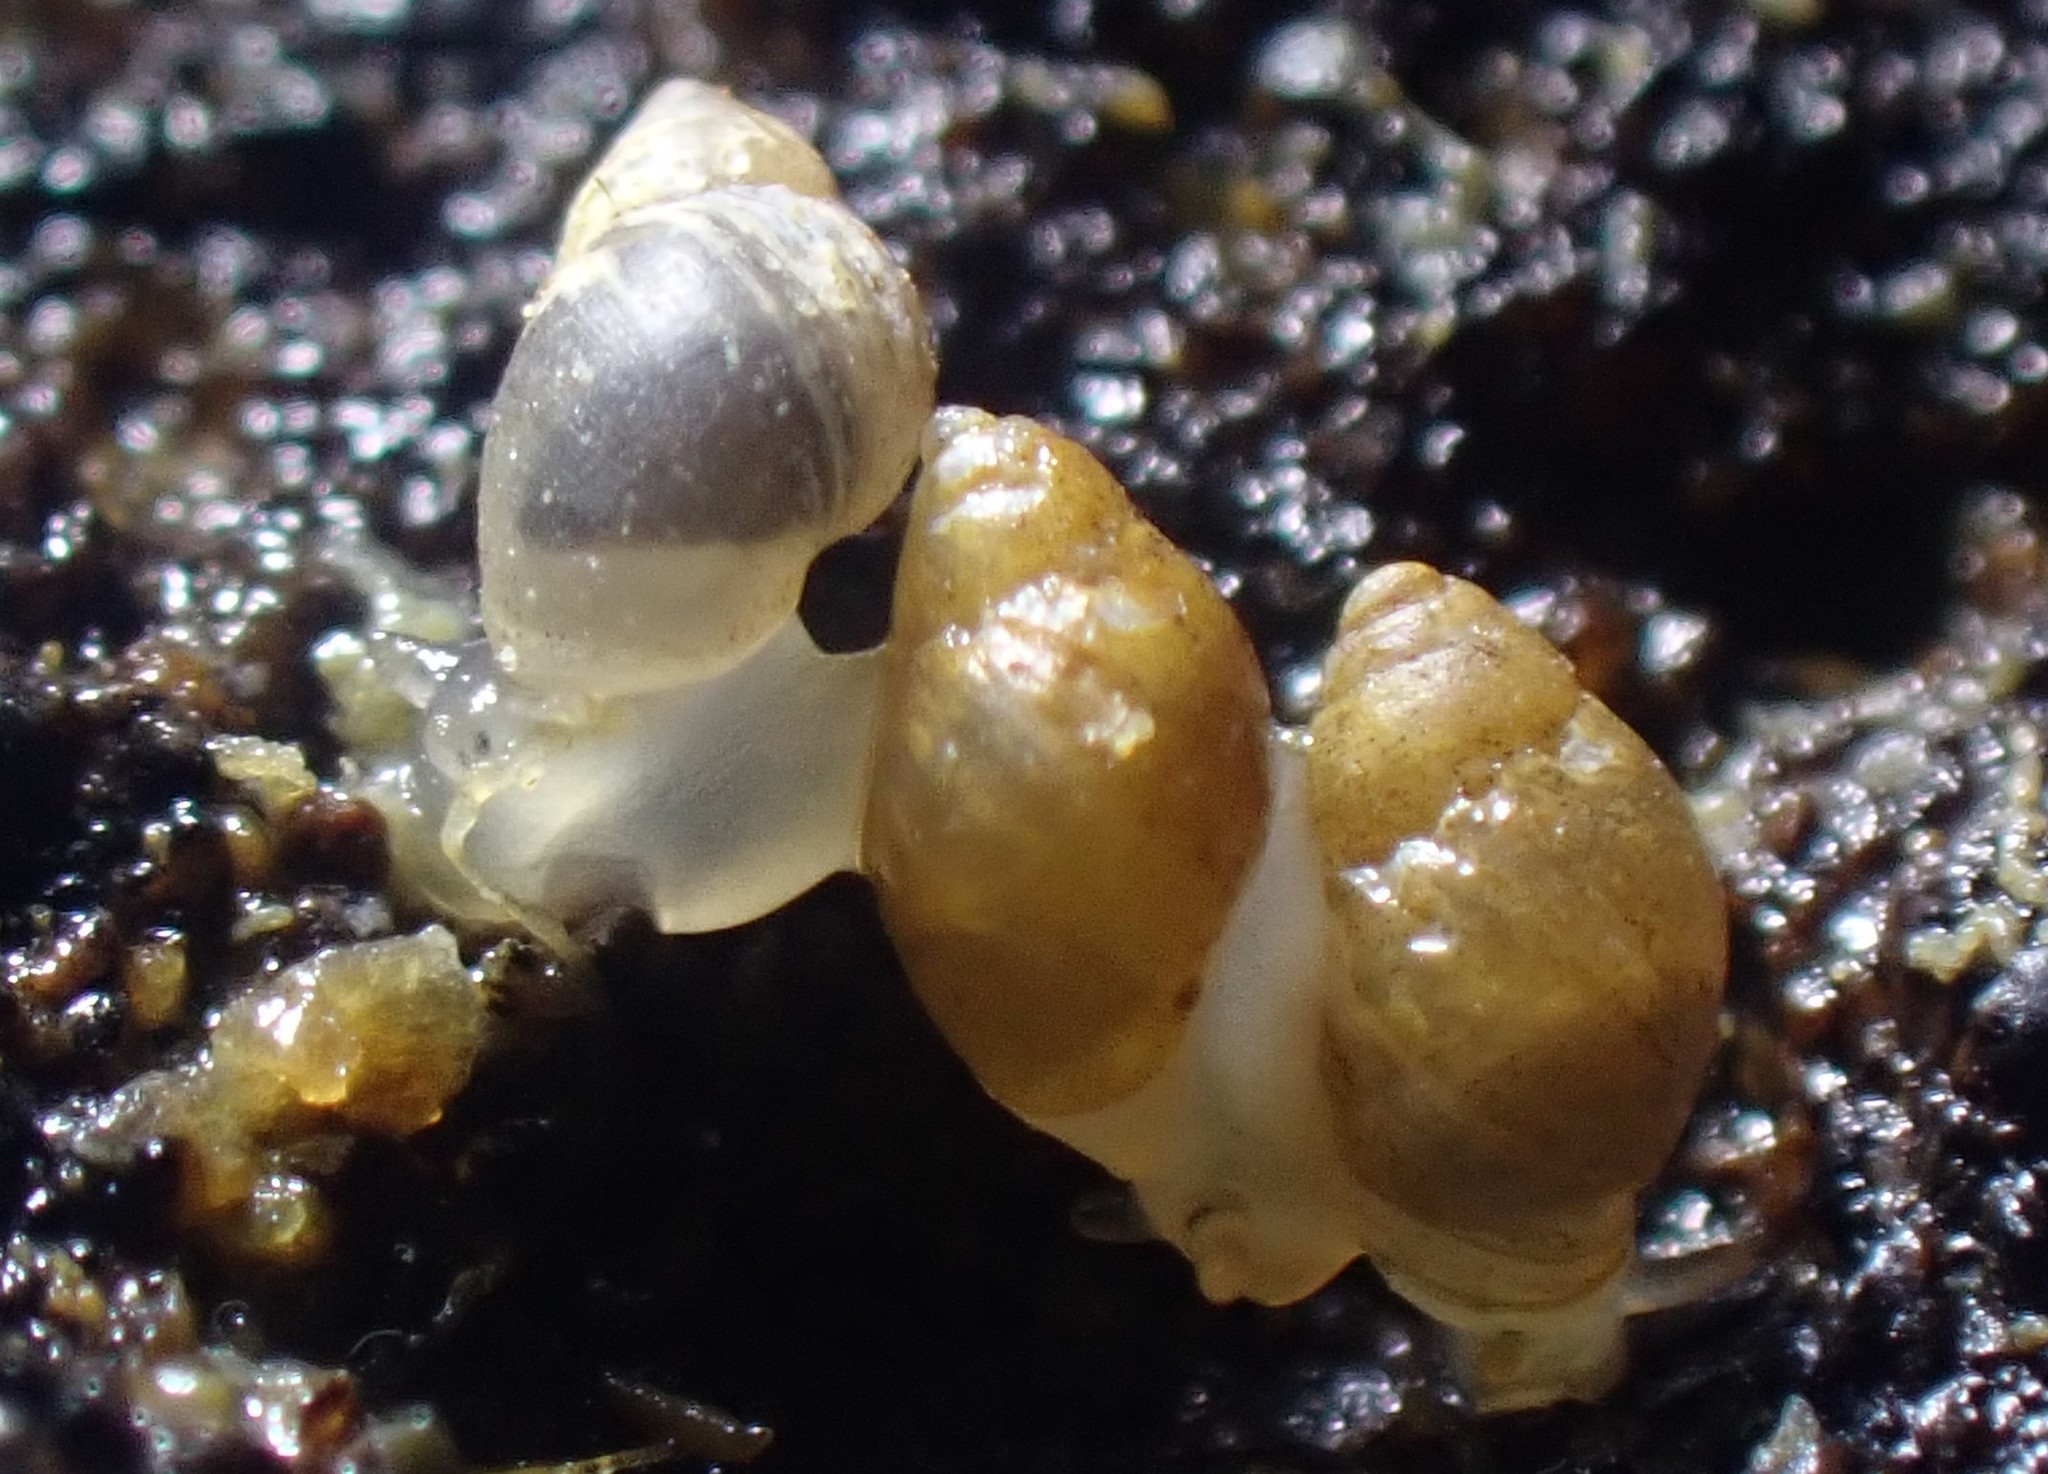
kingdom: Animalia
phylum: Mollusca
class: Gastropoda
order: Ellobiida
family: Ellobiidae
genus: Leuconopsis
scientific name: Leuconopsis obsoleta
